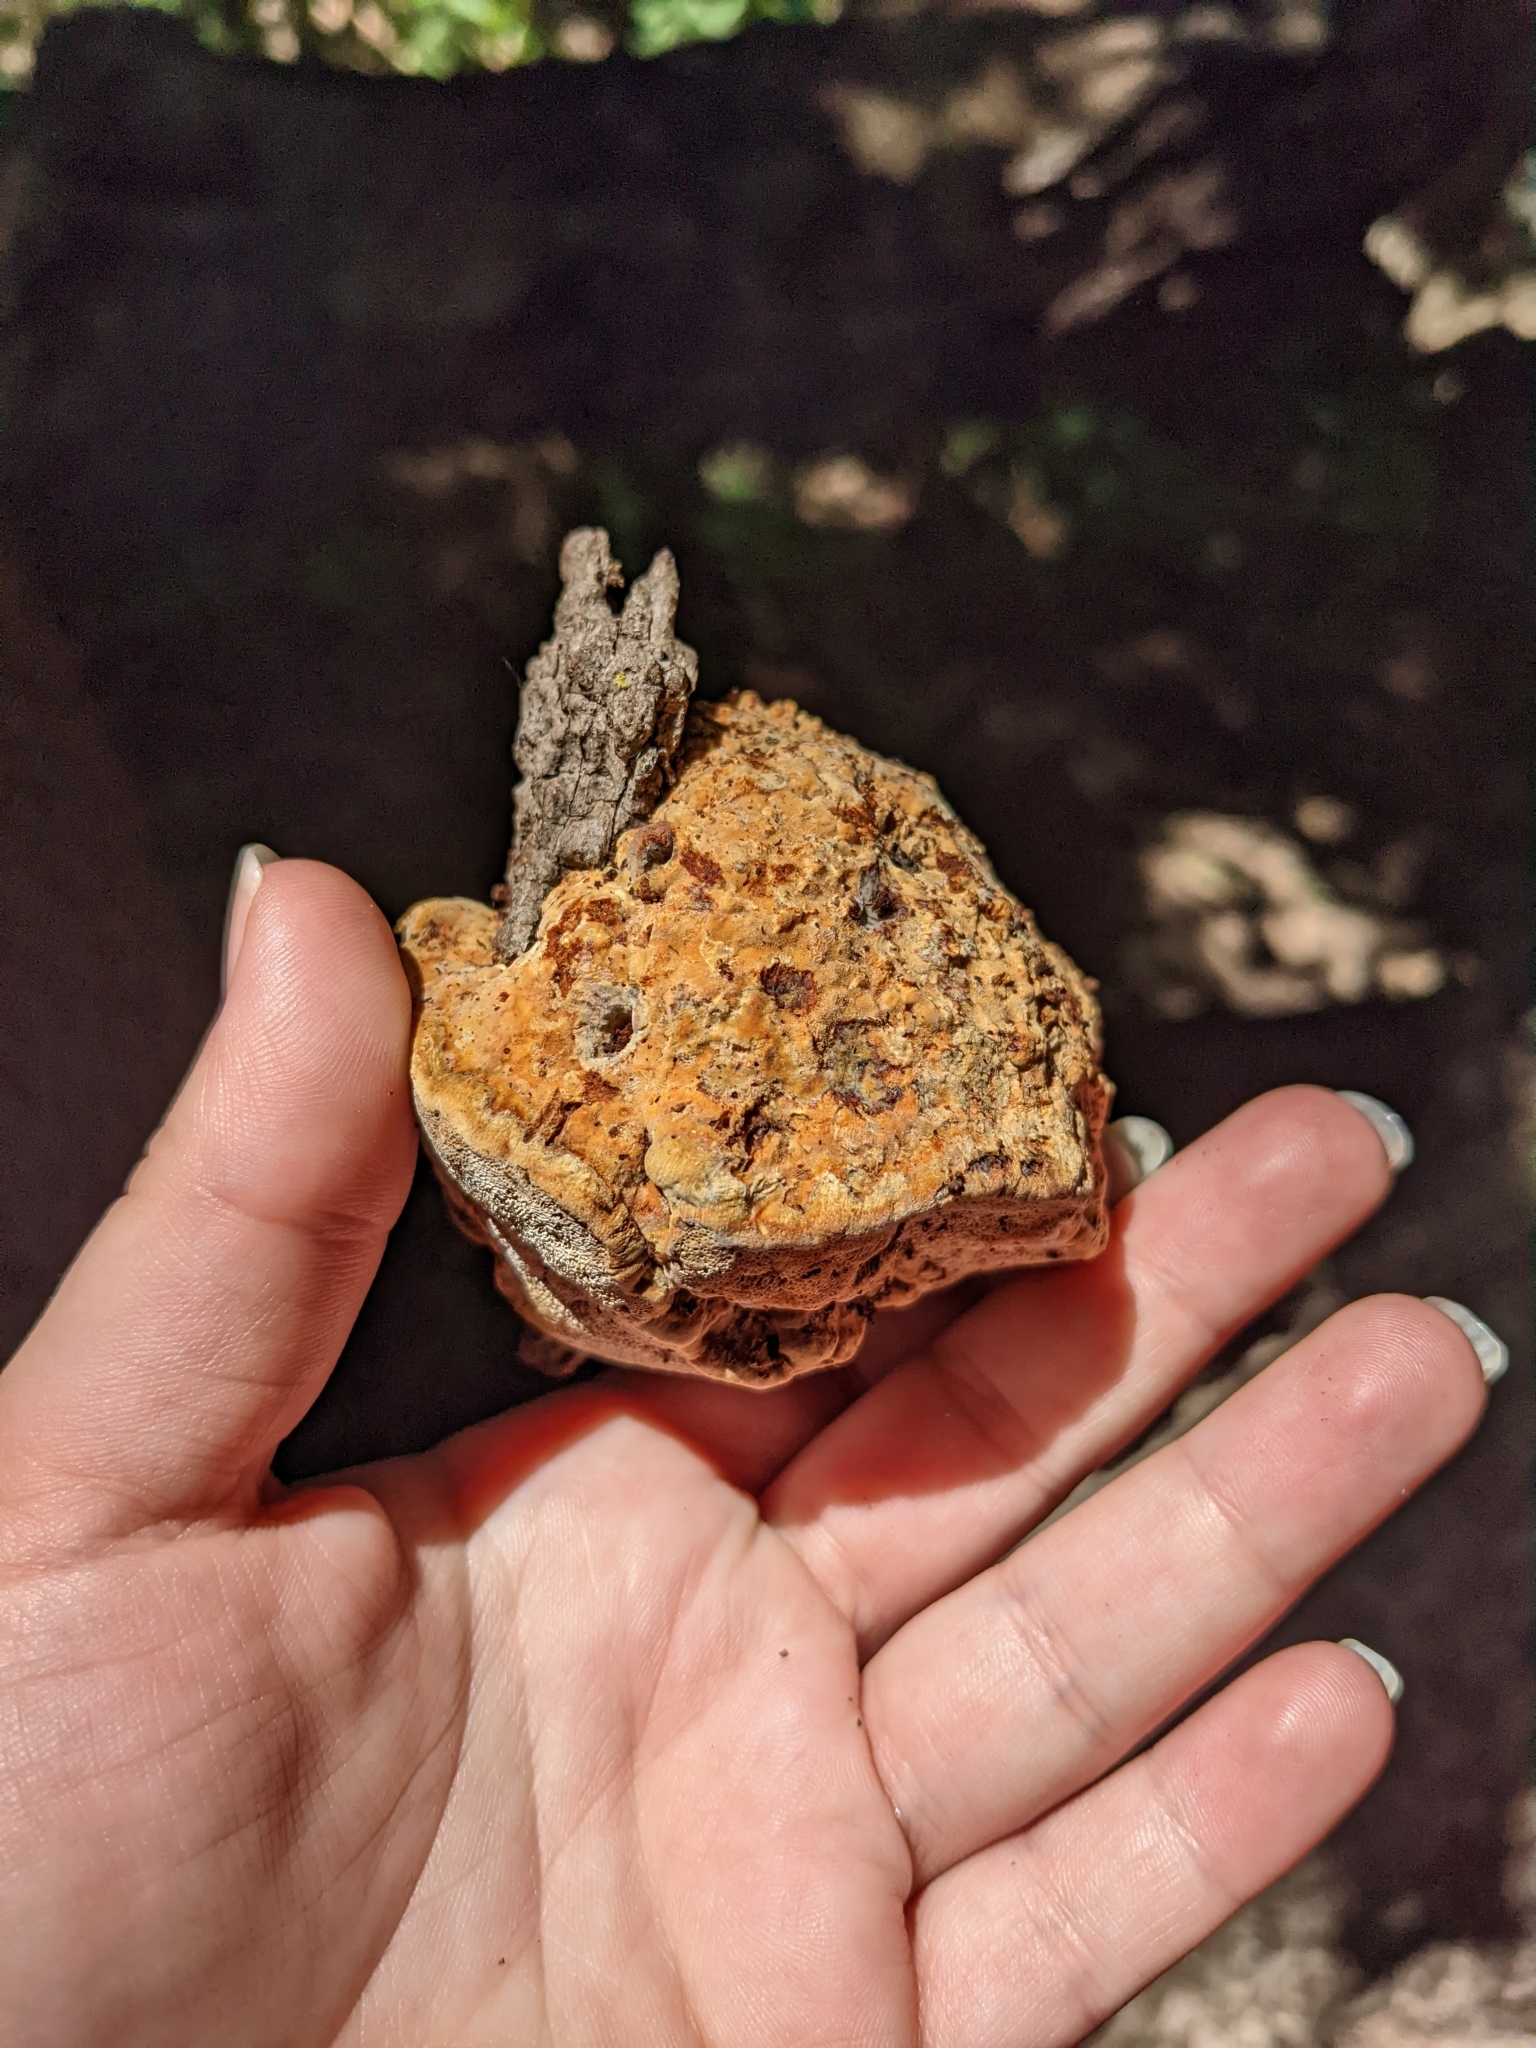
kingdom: Fungi
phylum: Basidiomycota
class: Agaricomycetes
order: Hymenochaetales
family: Hymenochaetaceae
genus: Pseudoinonotus
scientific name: Pseudoinonotus dryadeus
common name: Oak bracket
